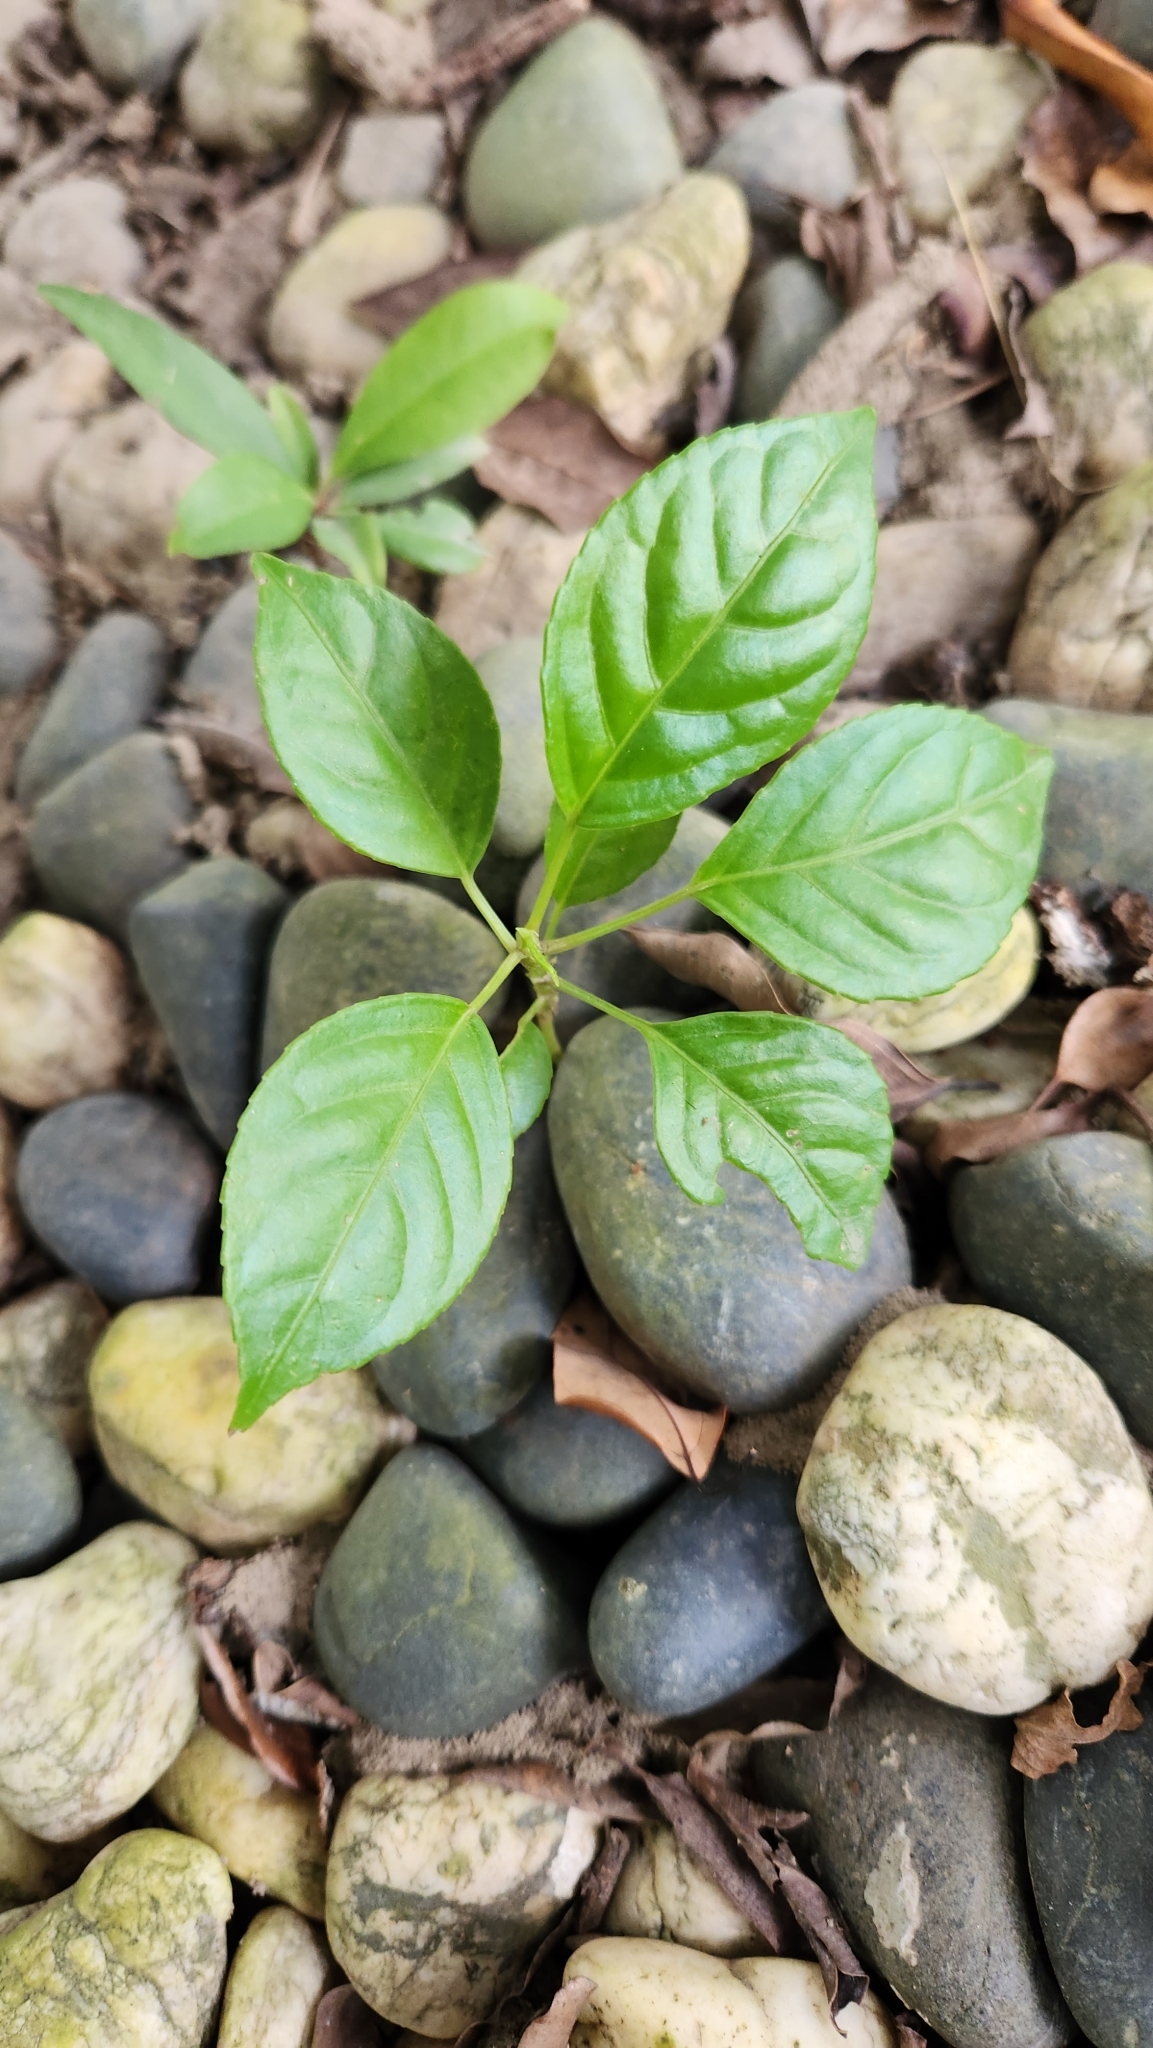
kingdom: Plantae
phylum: Tracheophyta
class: Magnoliopsida
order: Malpighiales
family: Phyllanthaceae
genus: Bischofia
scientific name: Bischofia javanica
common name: Javanese bishopwood
